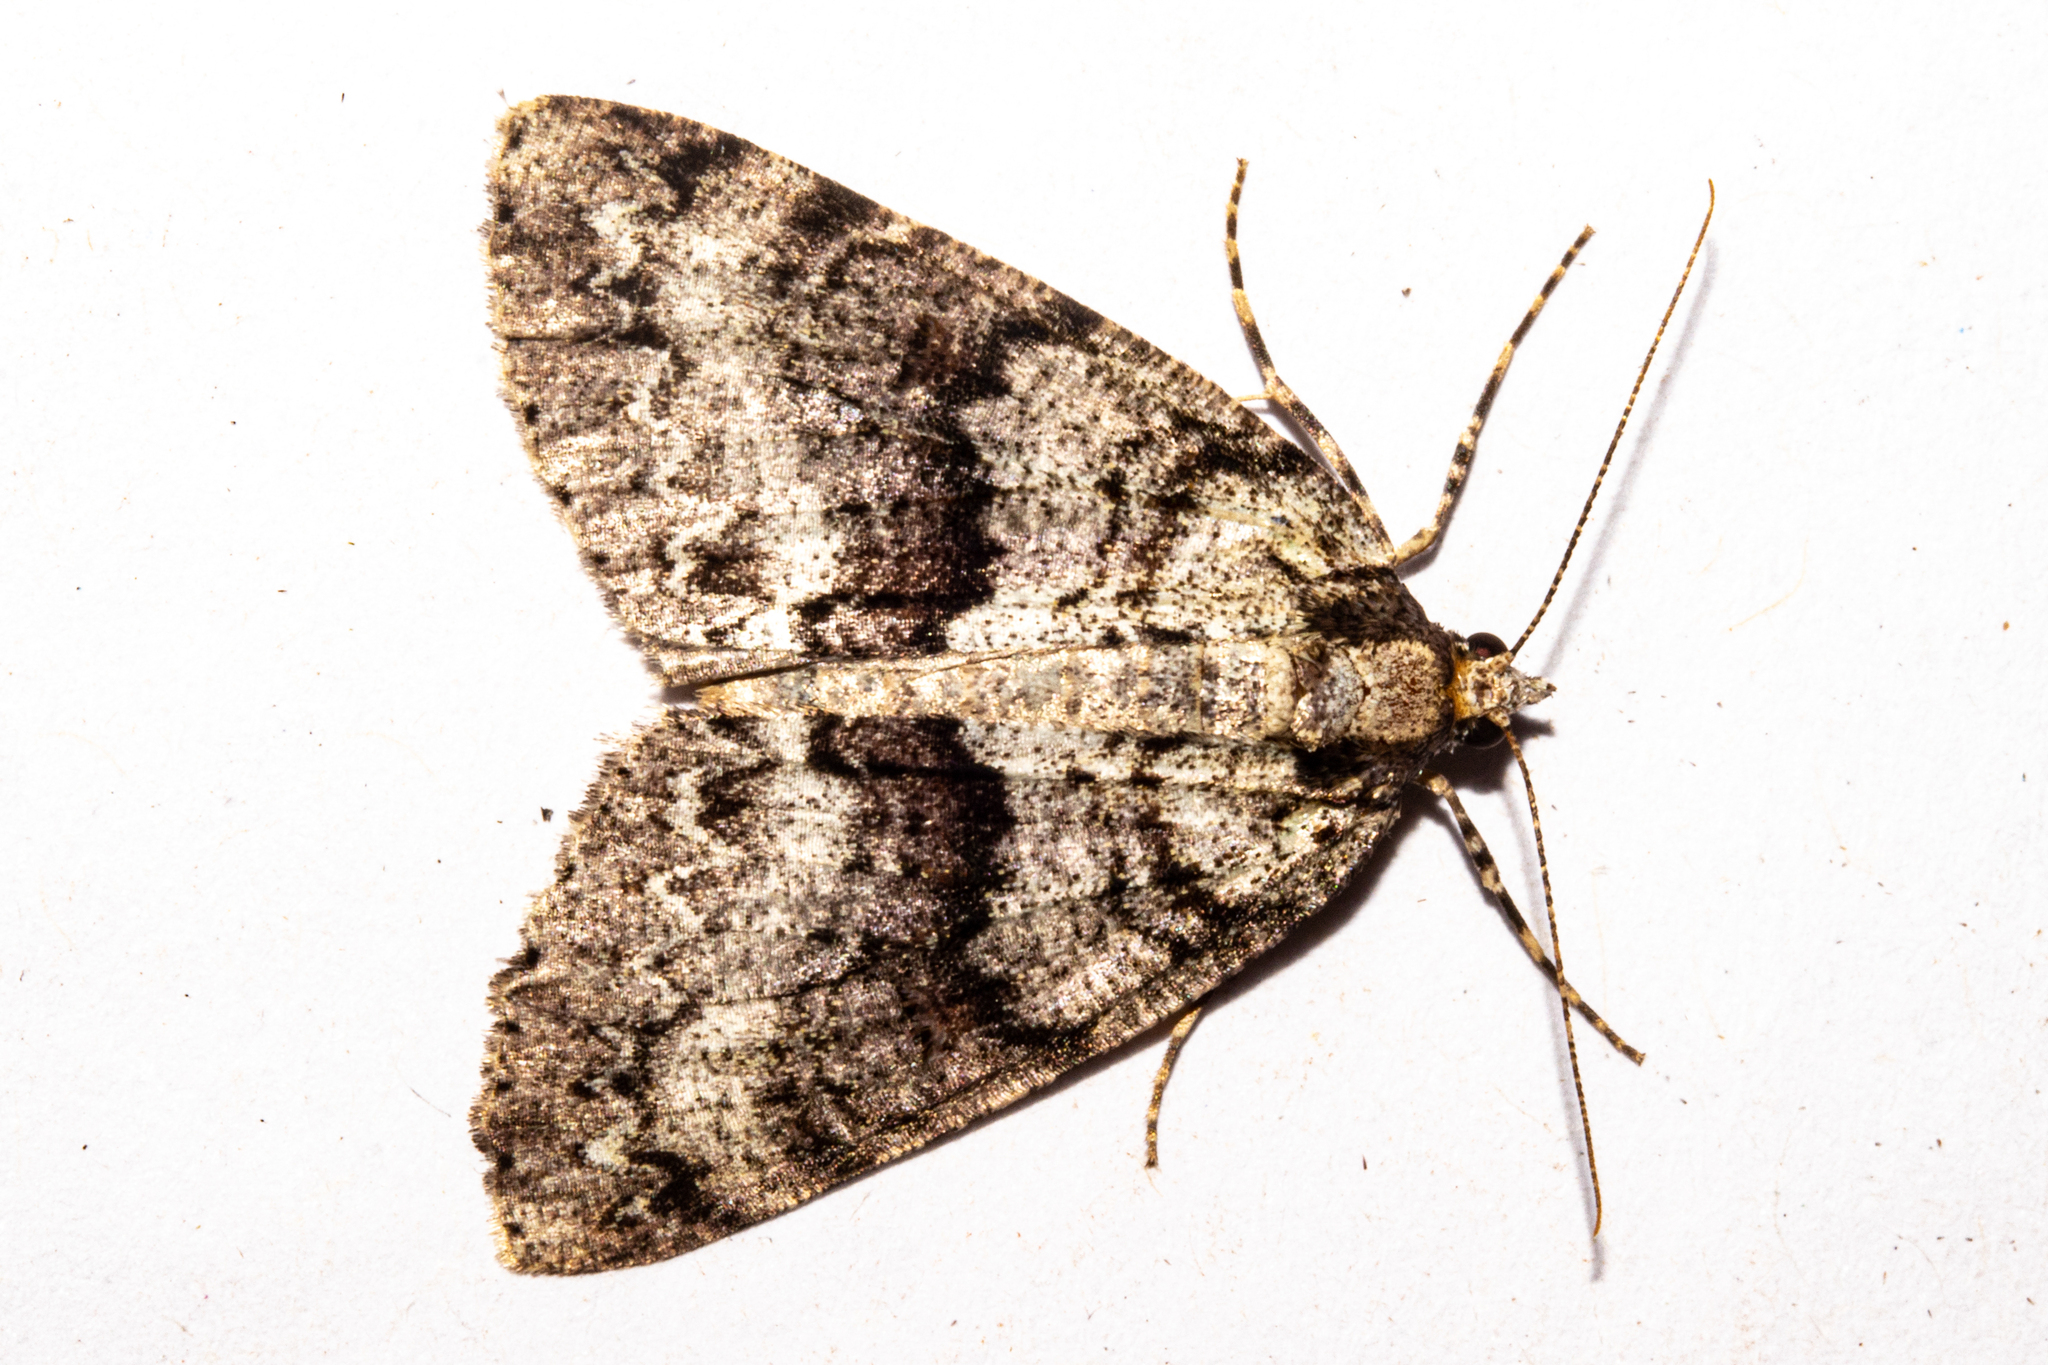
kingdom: Animalia
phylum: Arthropoda
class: Insecta
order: Lepidoptera
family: Geometridae
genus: Pseudocoremia
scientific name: Pseudocoremia suavis
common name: Common forest looper
